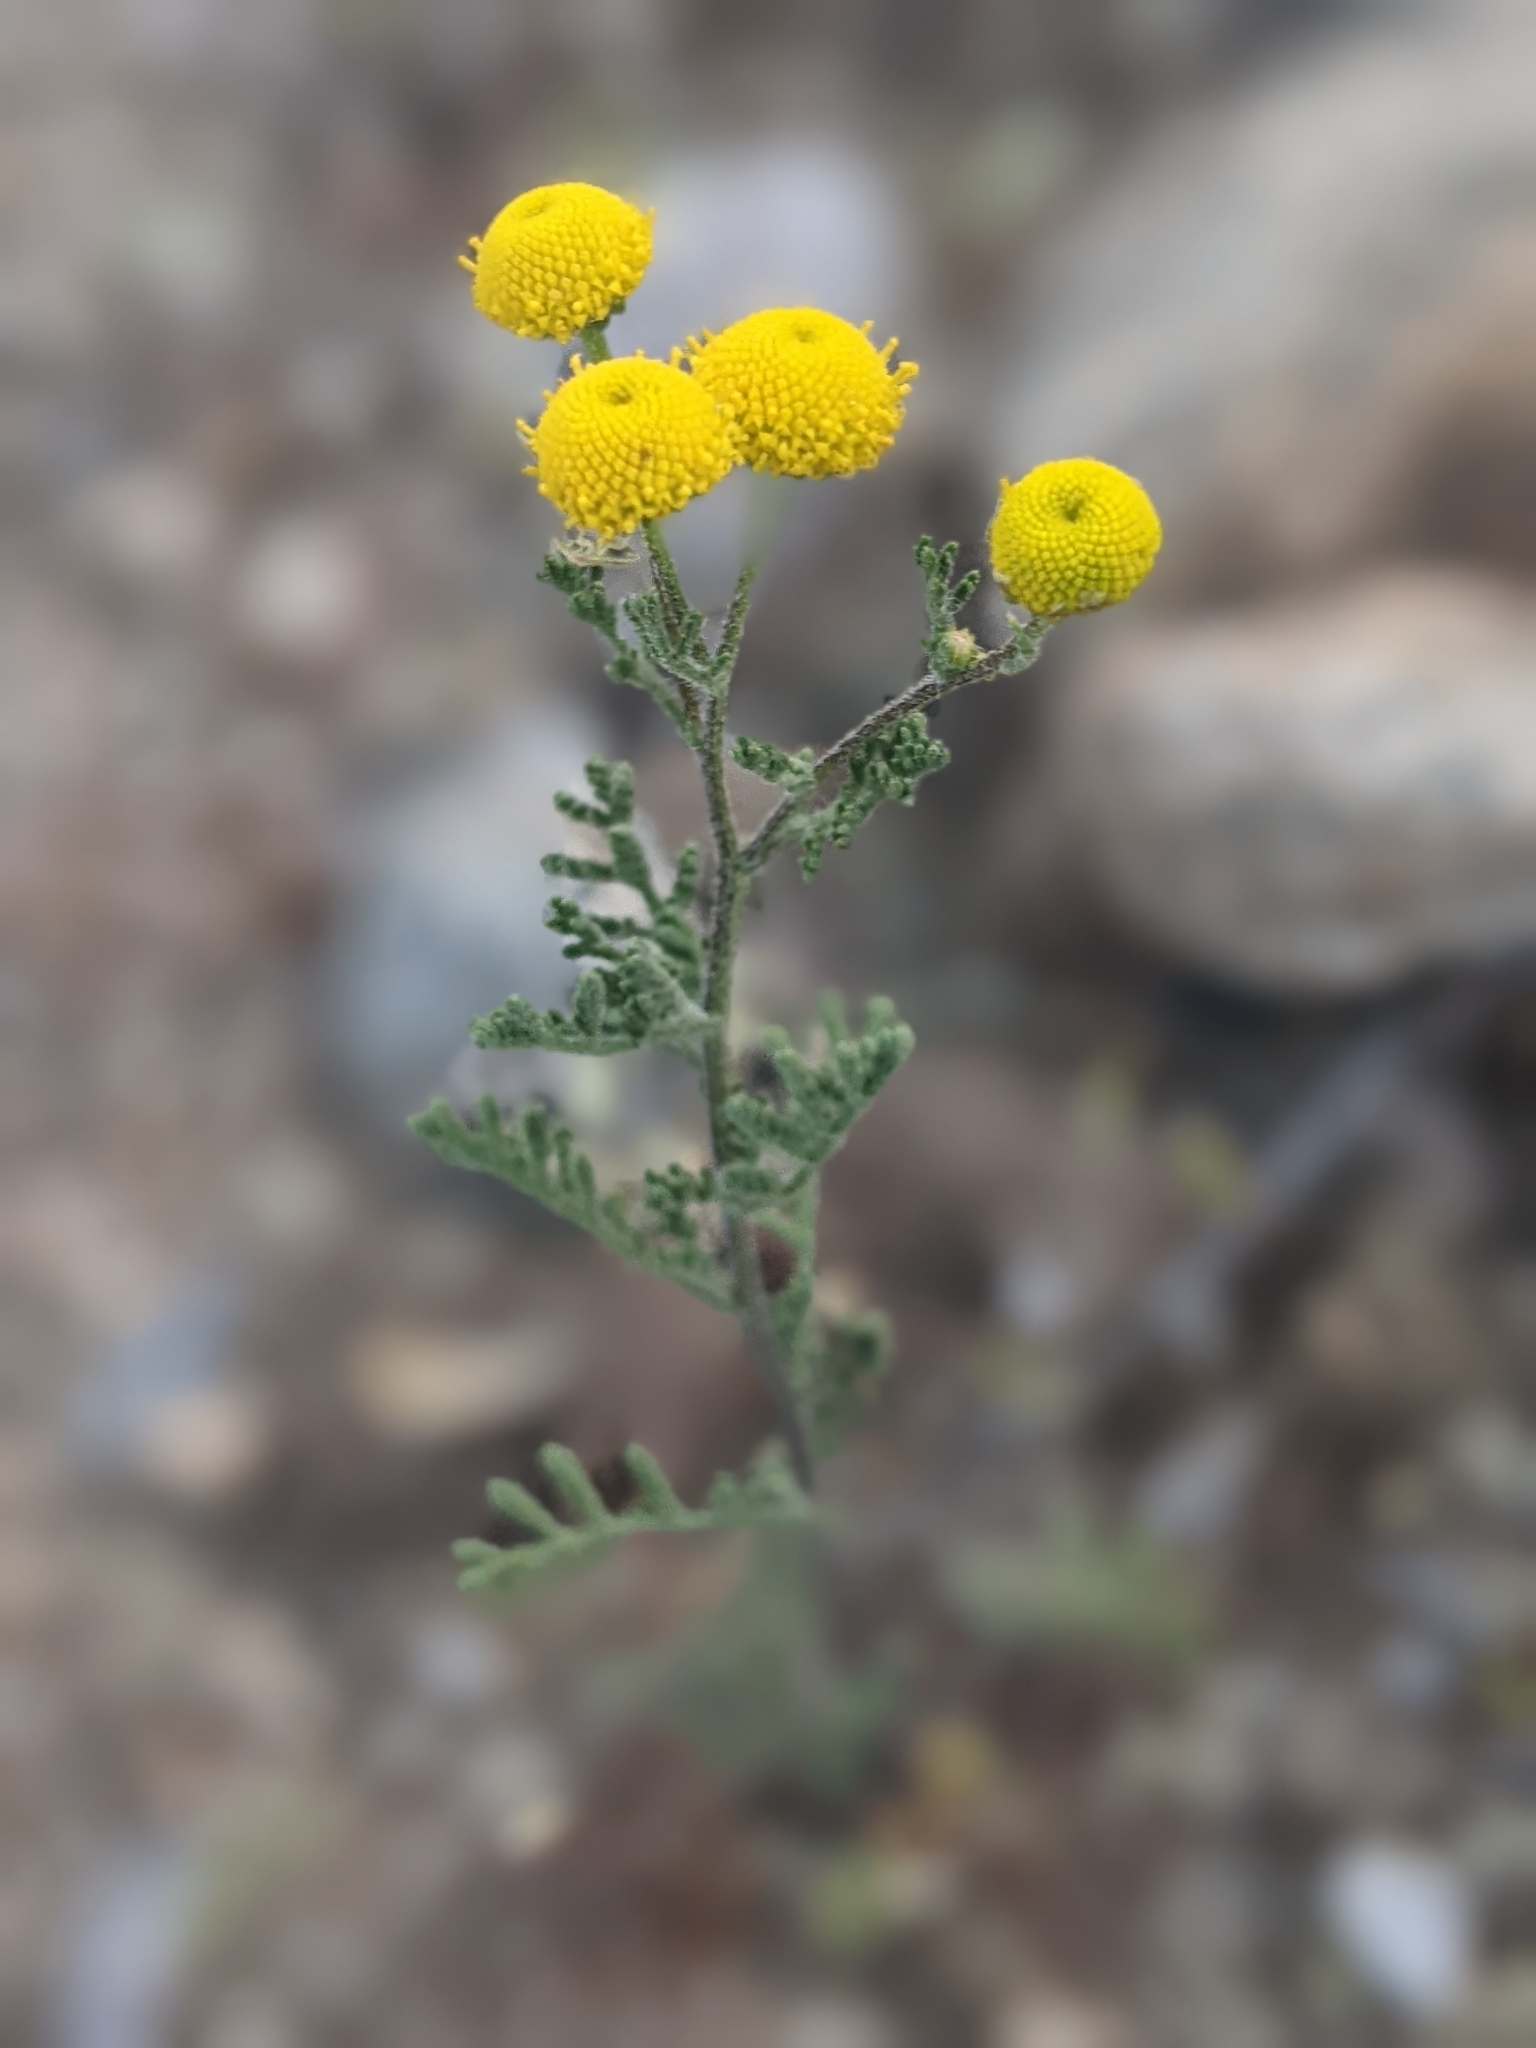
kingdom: Plantae
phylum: Tracheophyta
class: Magnoliopsida
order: Asterales
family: Asteraceae
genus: Oncosiphon
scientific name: Oncosiphon pilulifer
